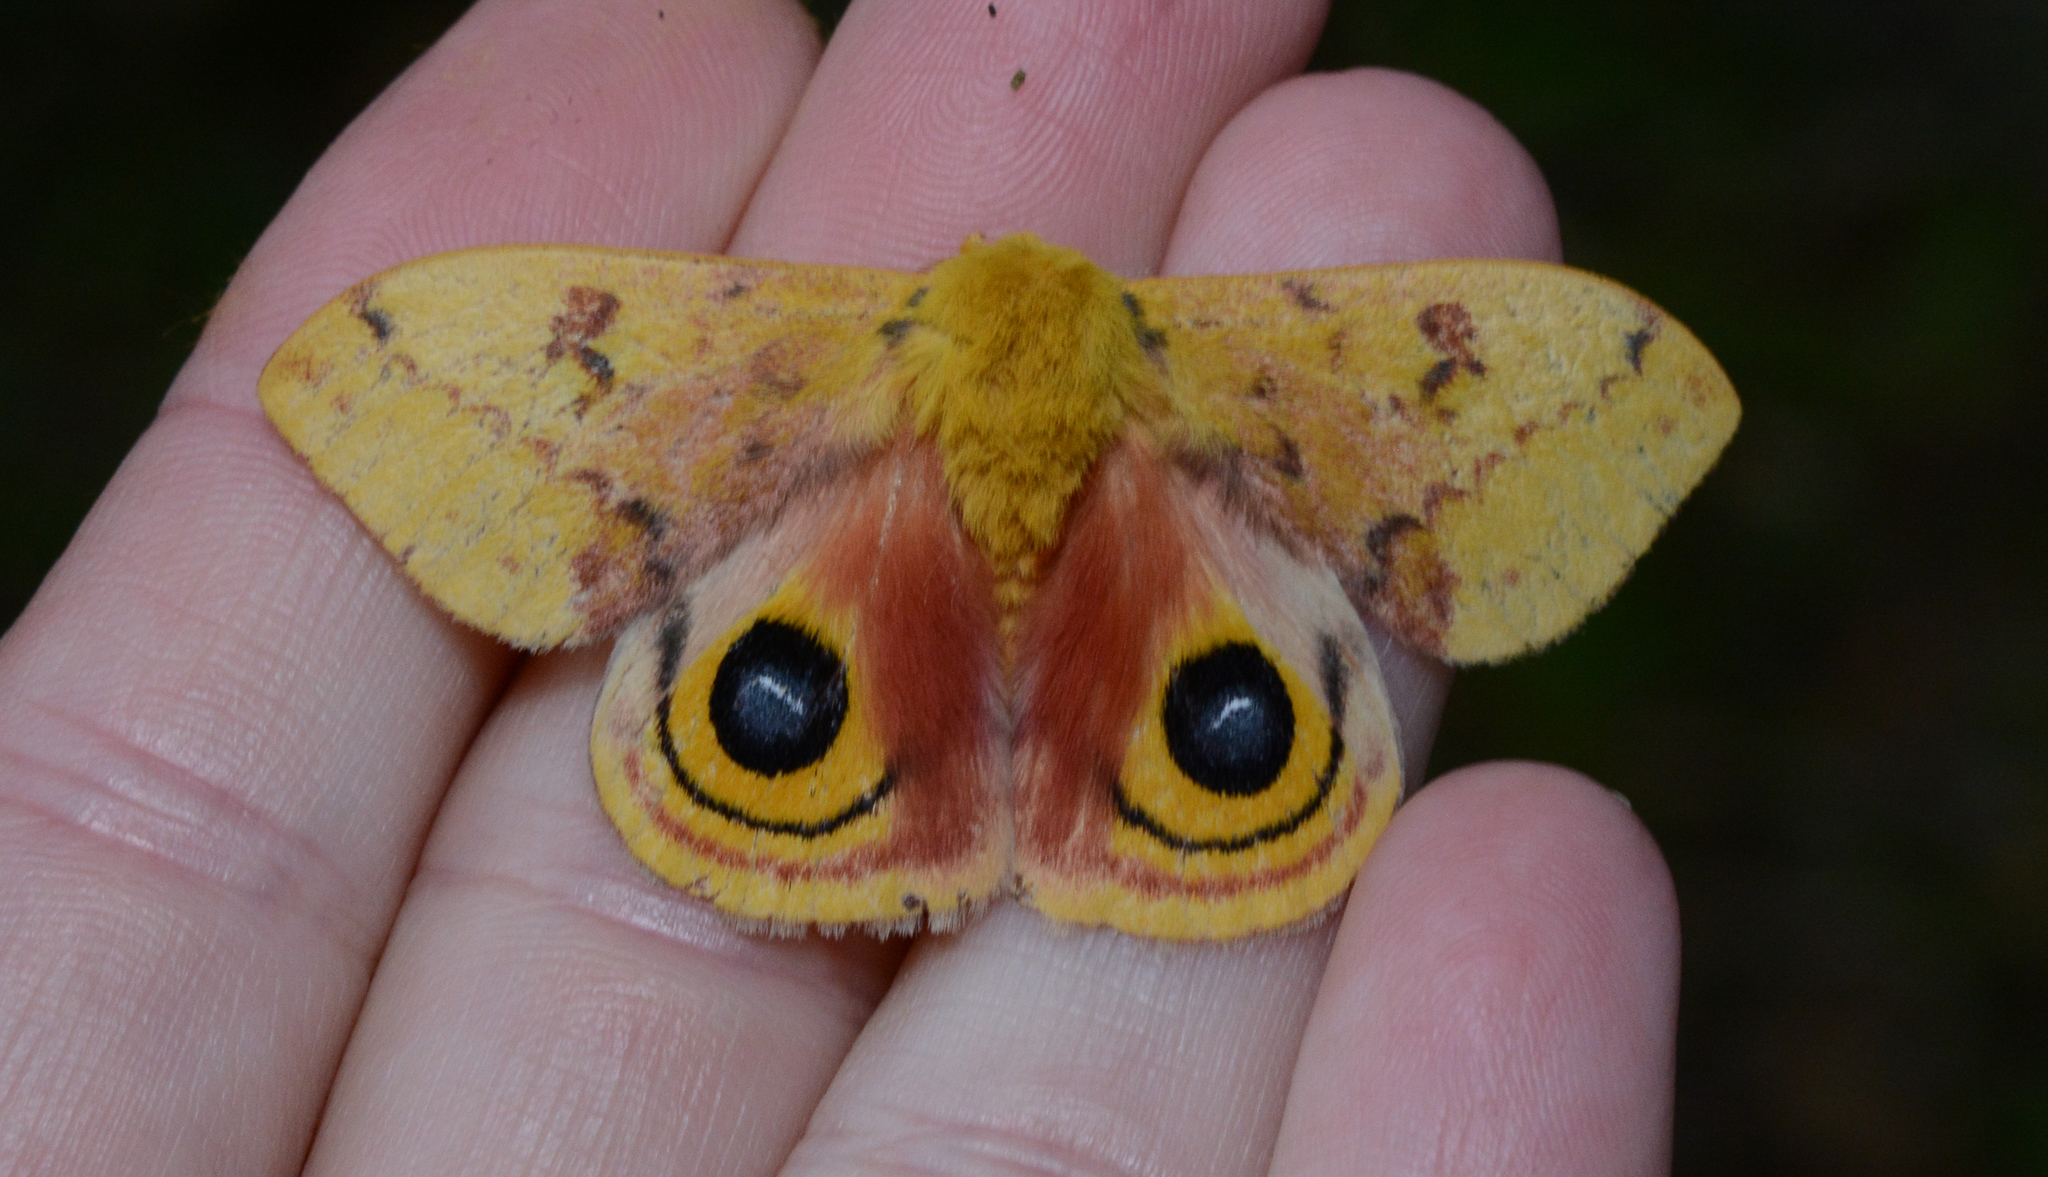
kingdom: Animalia
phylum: Arthropoda
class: Insecta
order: Lepidoptera
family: Saturniidae
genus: Automeris
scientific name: Automeris io
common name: Io moth
